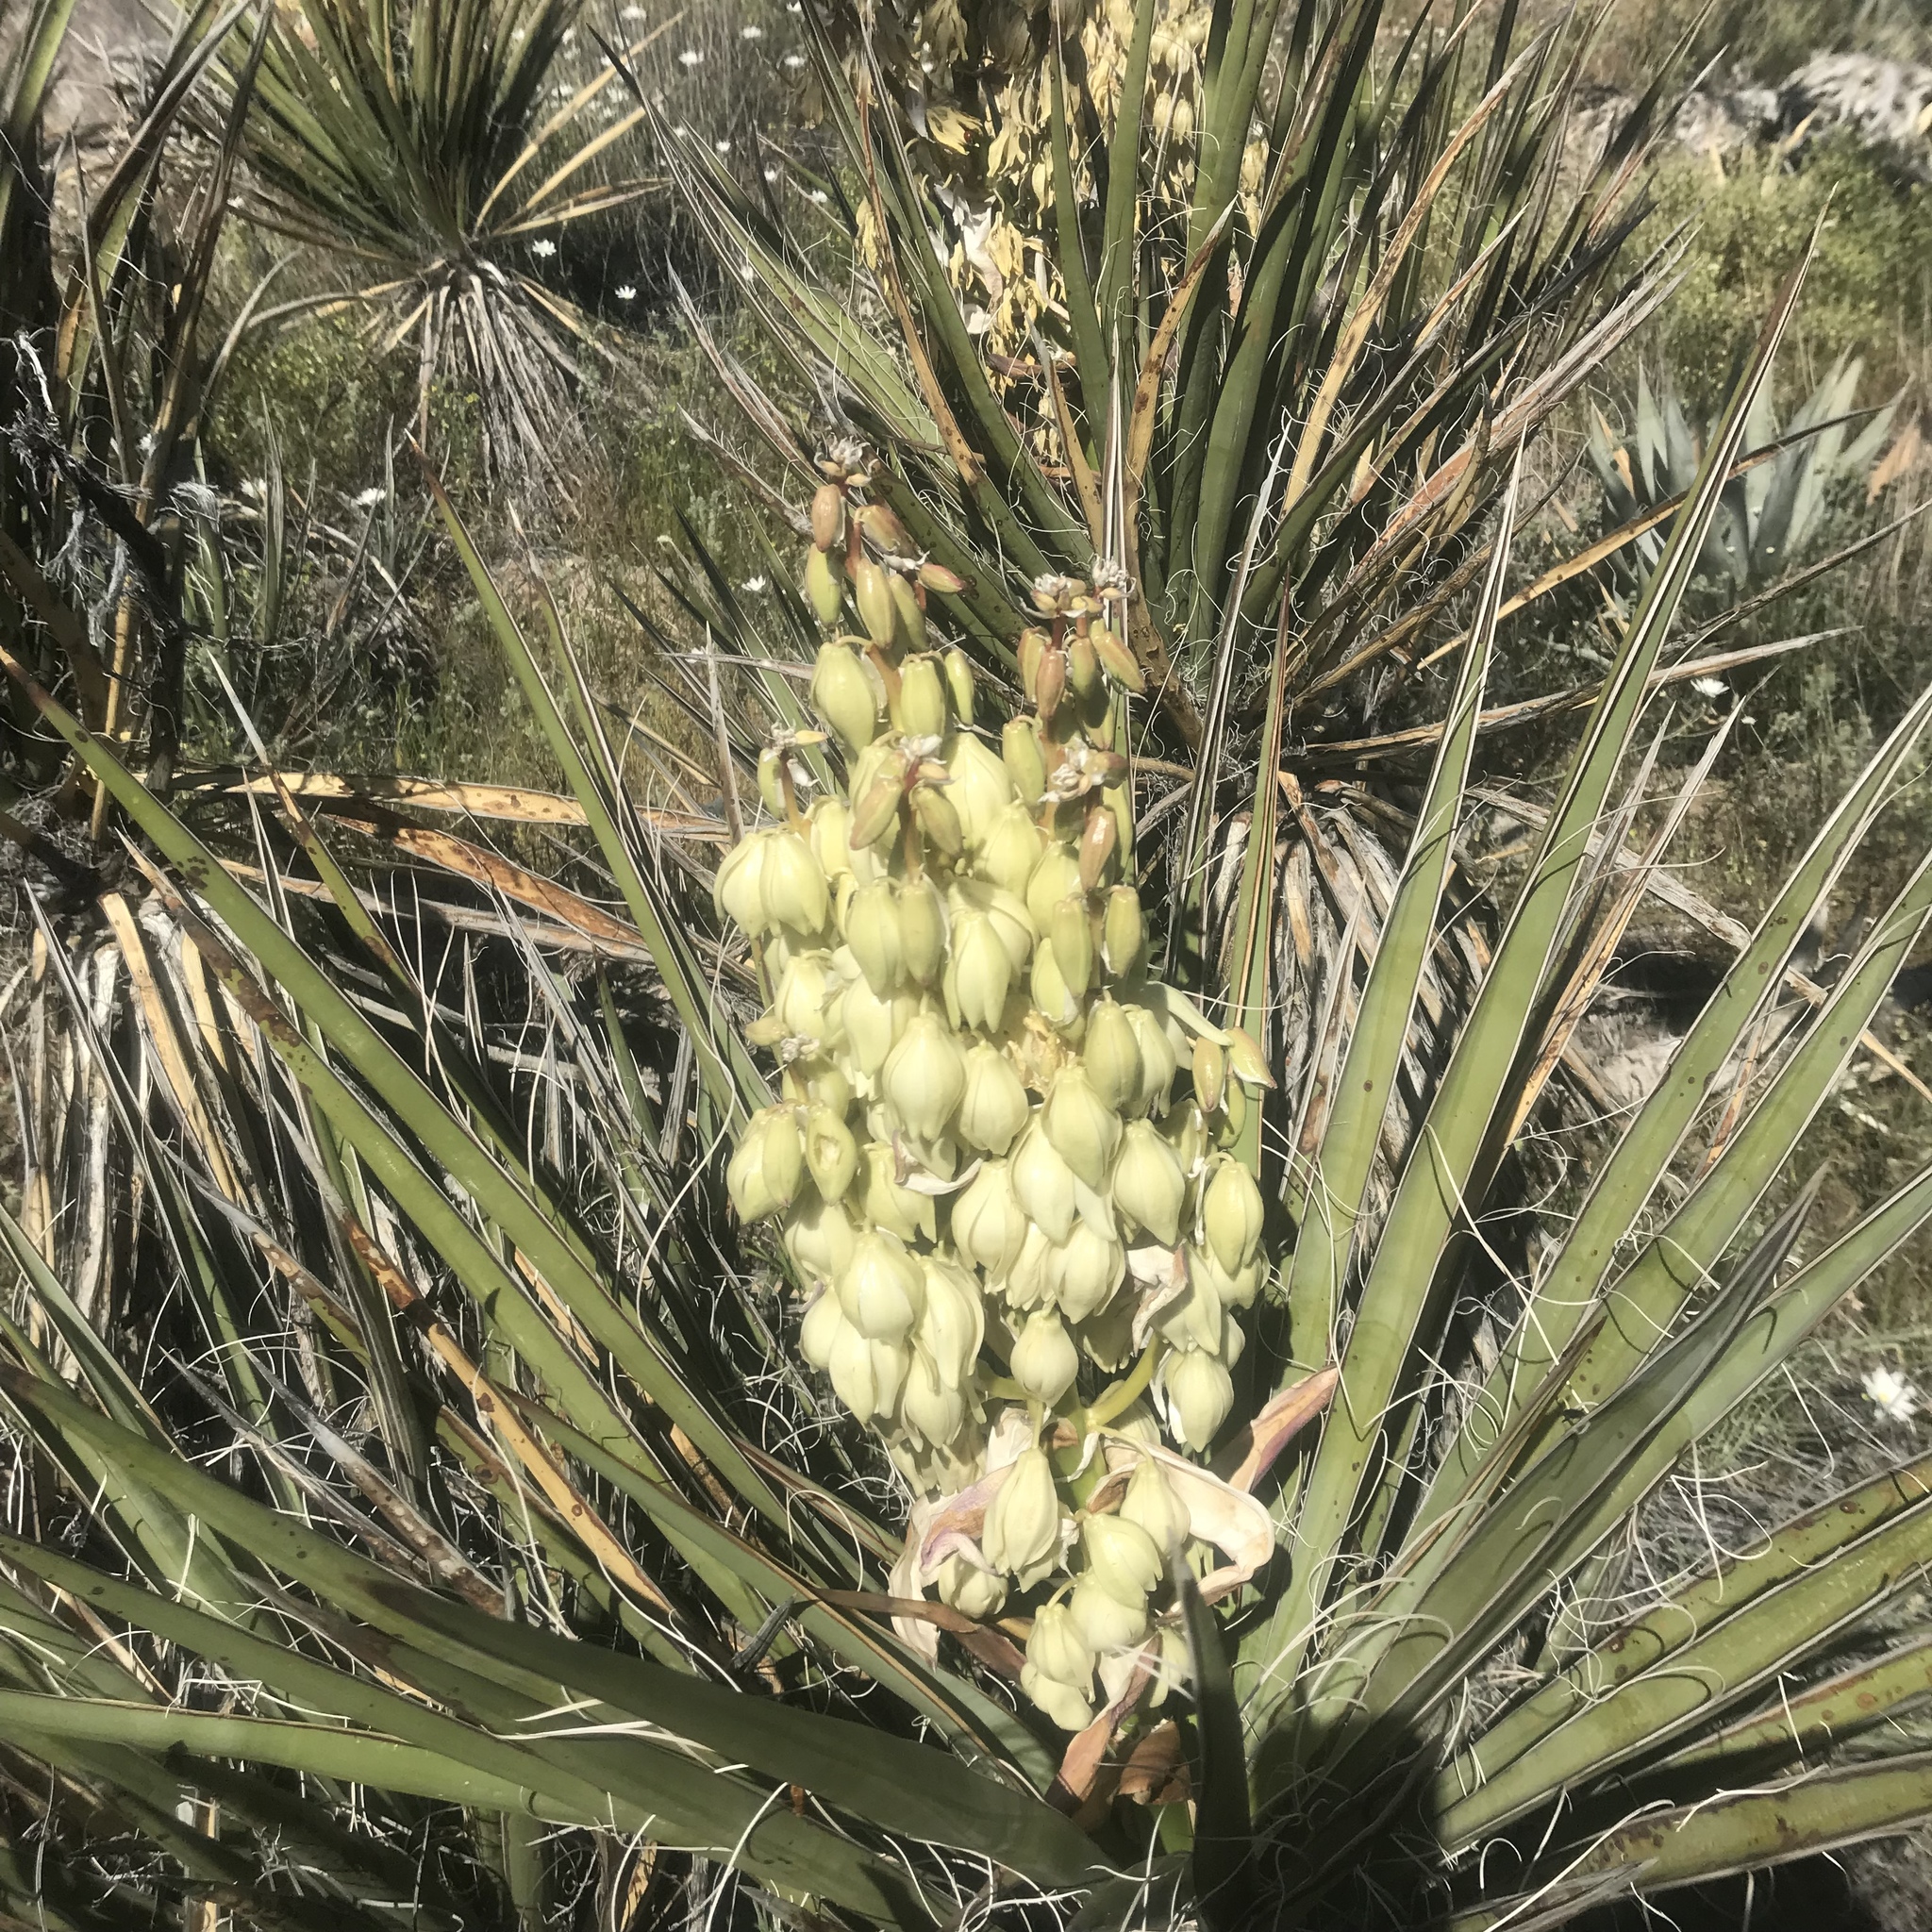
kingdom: Plantae
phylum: Tracheophyta
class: Liliopsida
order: Asparagales
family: Asparagaceae
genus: Yucca
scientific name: Yucca schidigera
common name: Mojave yucca
